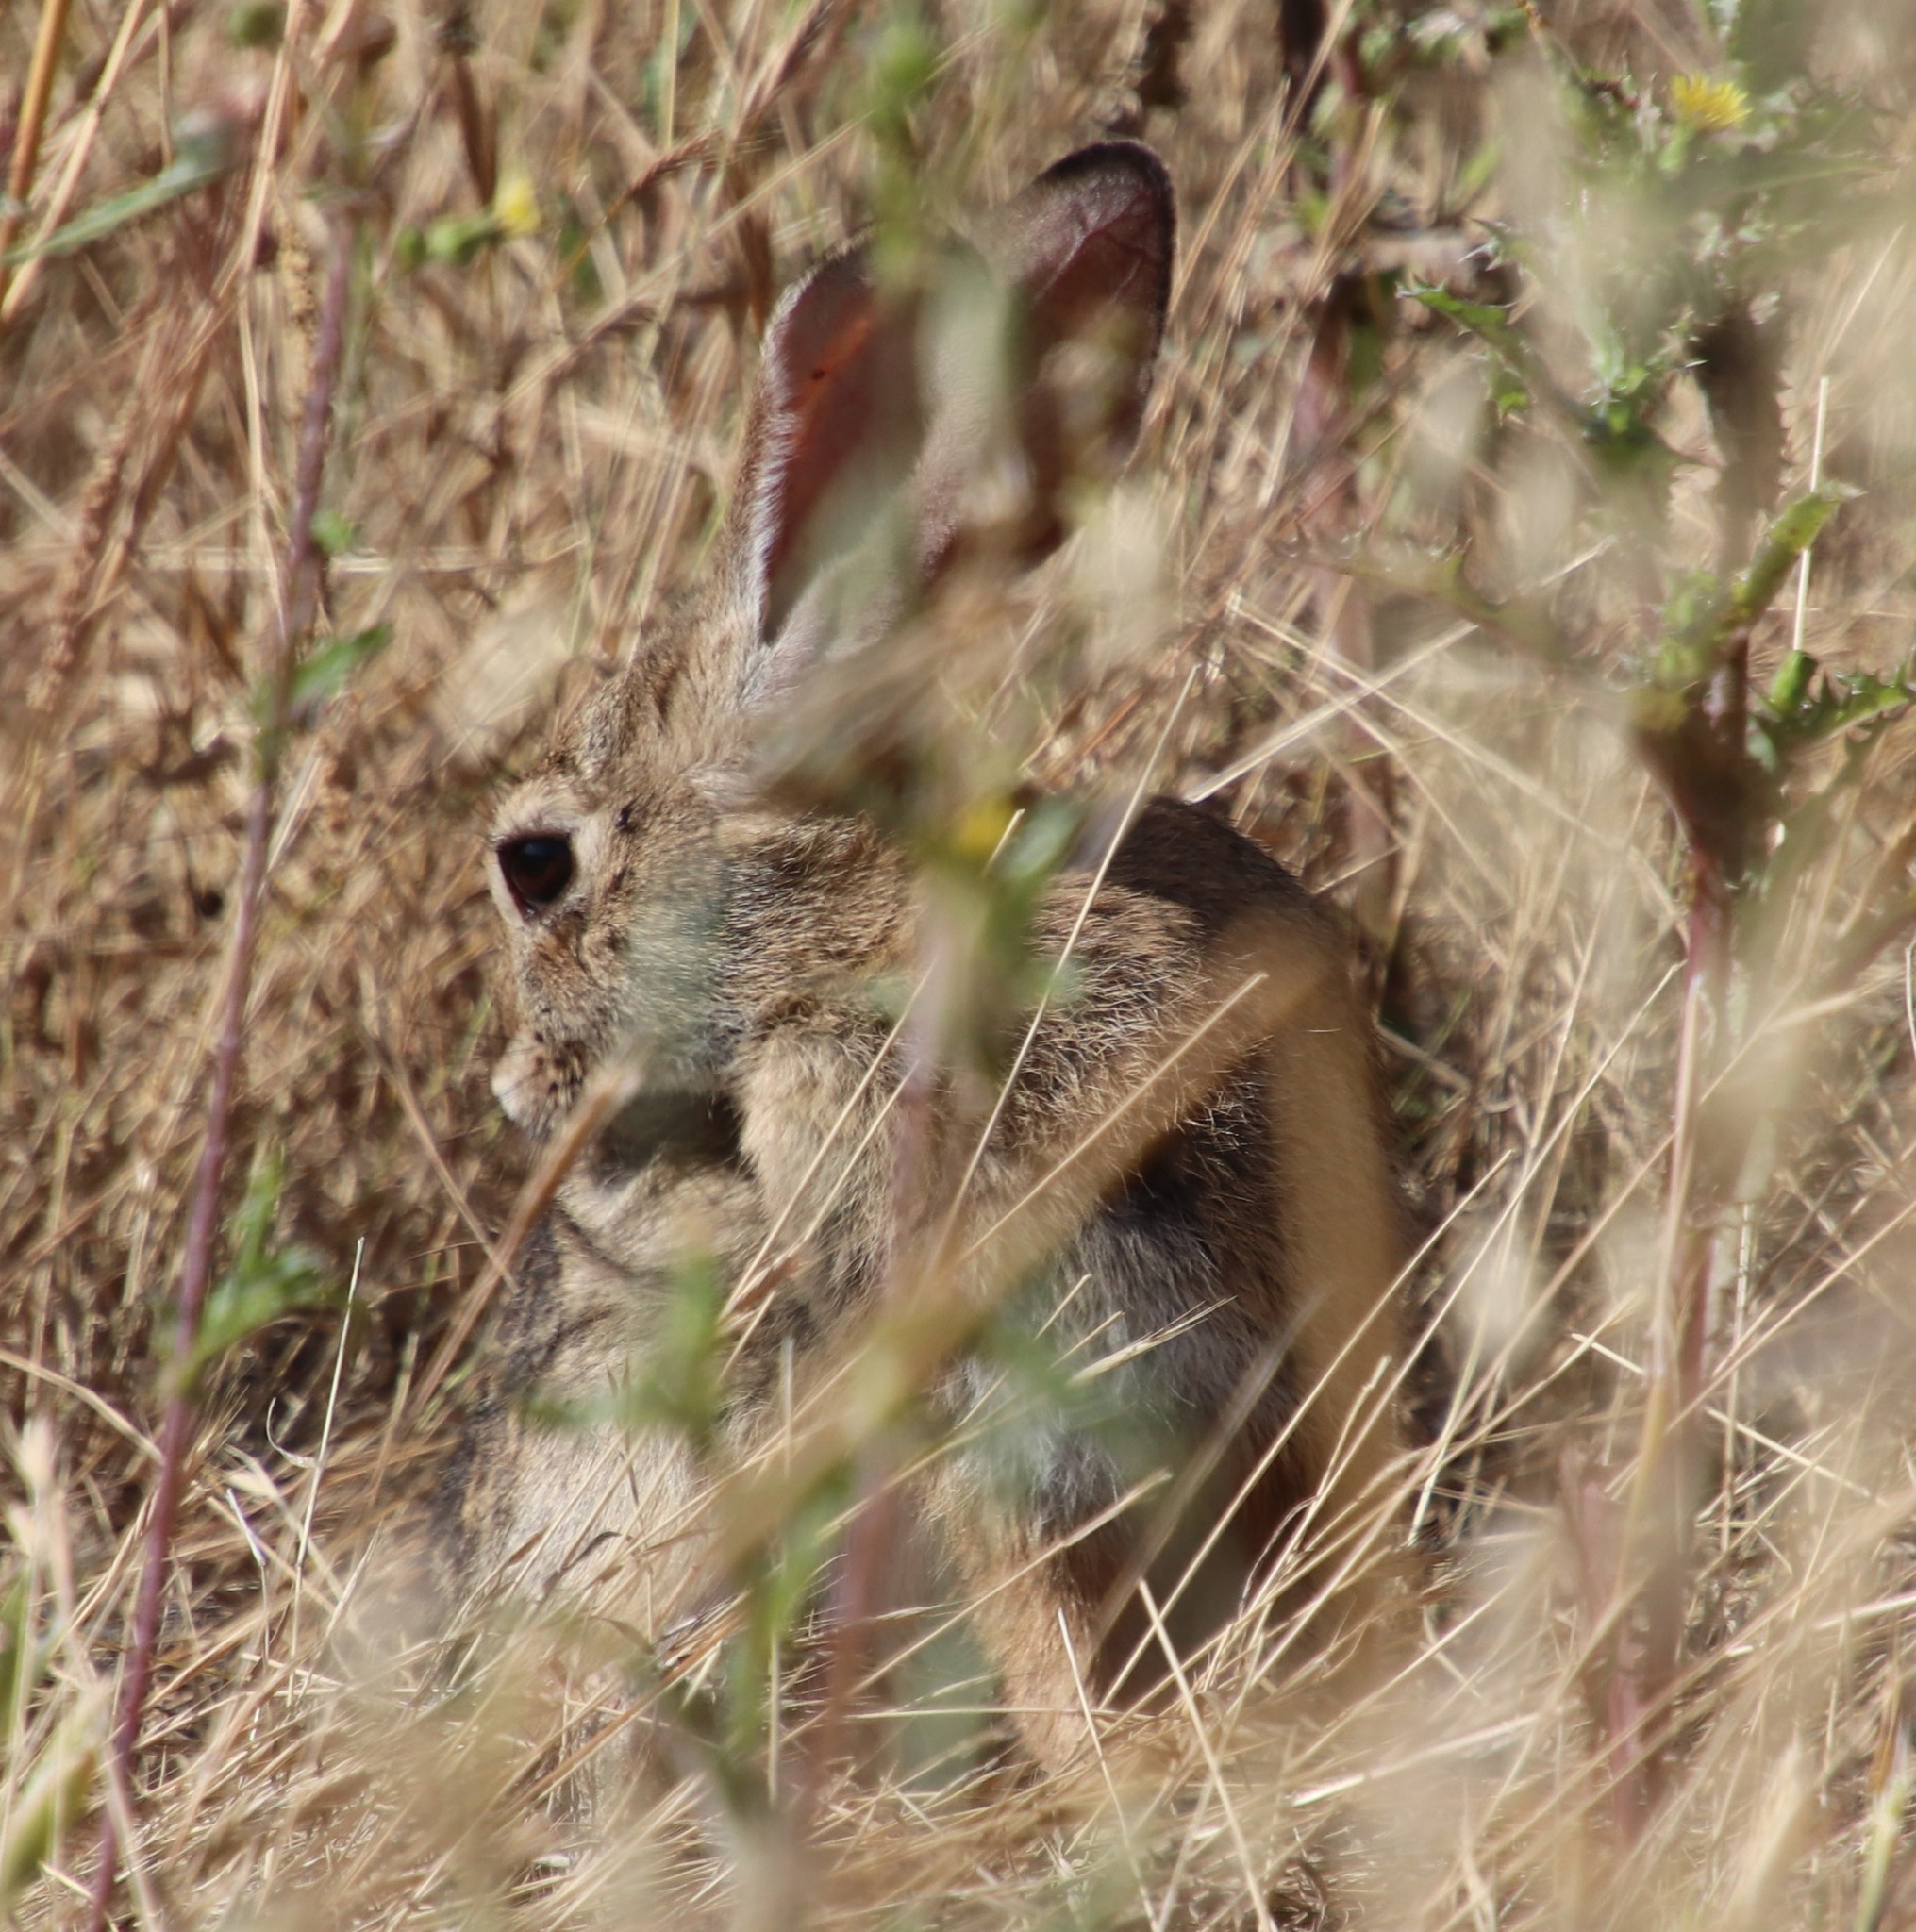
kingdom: Animalia
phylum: Chordata
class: Mammalia
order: Lagomorpha
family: Leporidae
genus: Sylvilagus
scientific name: Sylvilagus audubonii
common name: Desert cottontail
